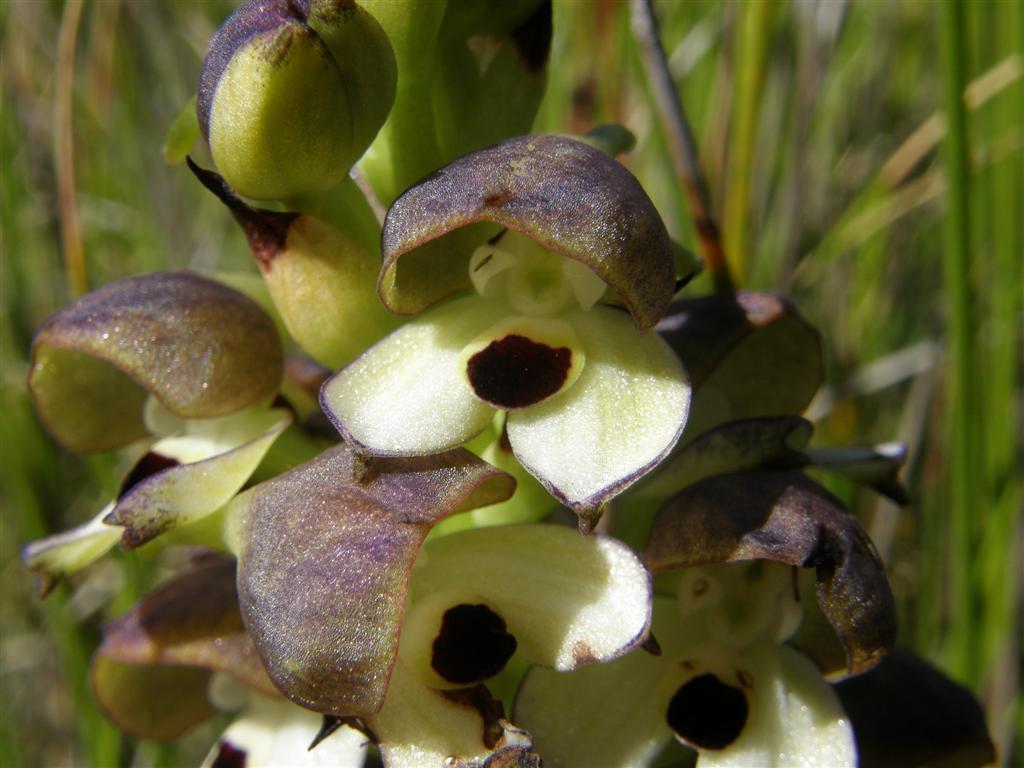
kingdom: Plantae
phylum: Tracheophyta
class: Liliopsida
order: Asparagales
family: Orchidaceae
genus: Disa
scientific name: Disa cornuta
